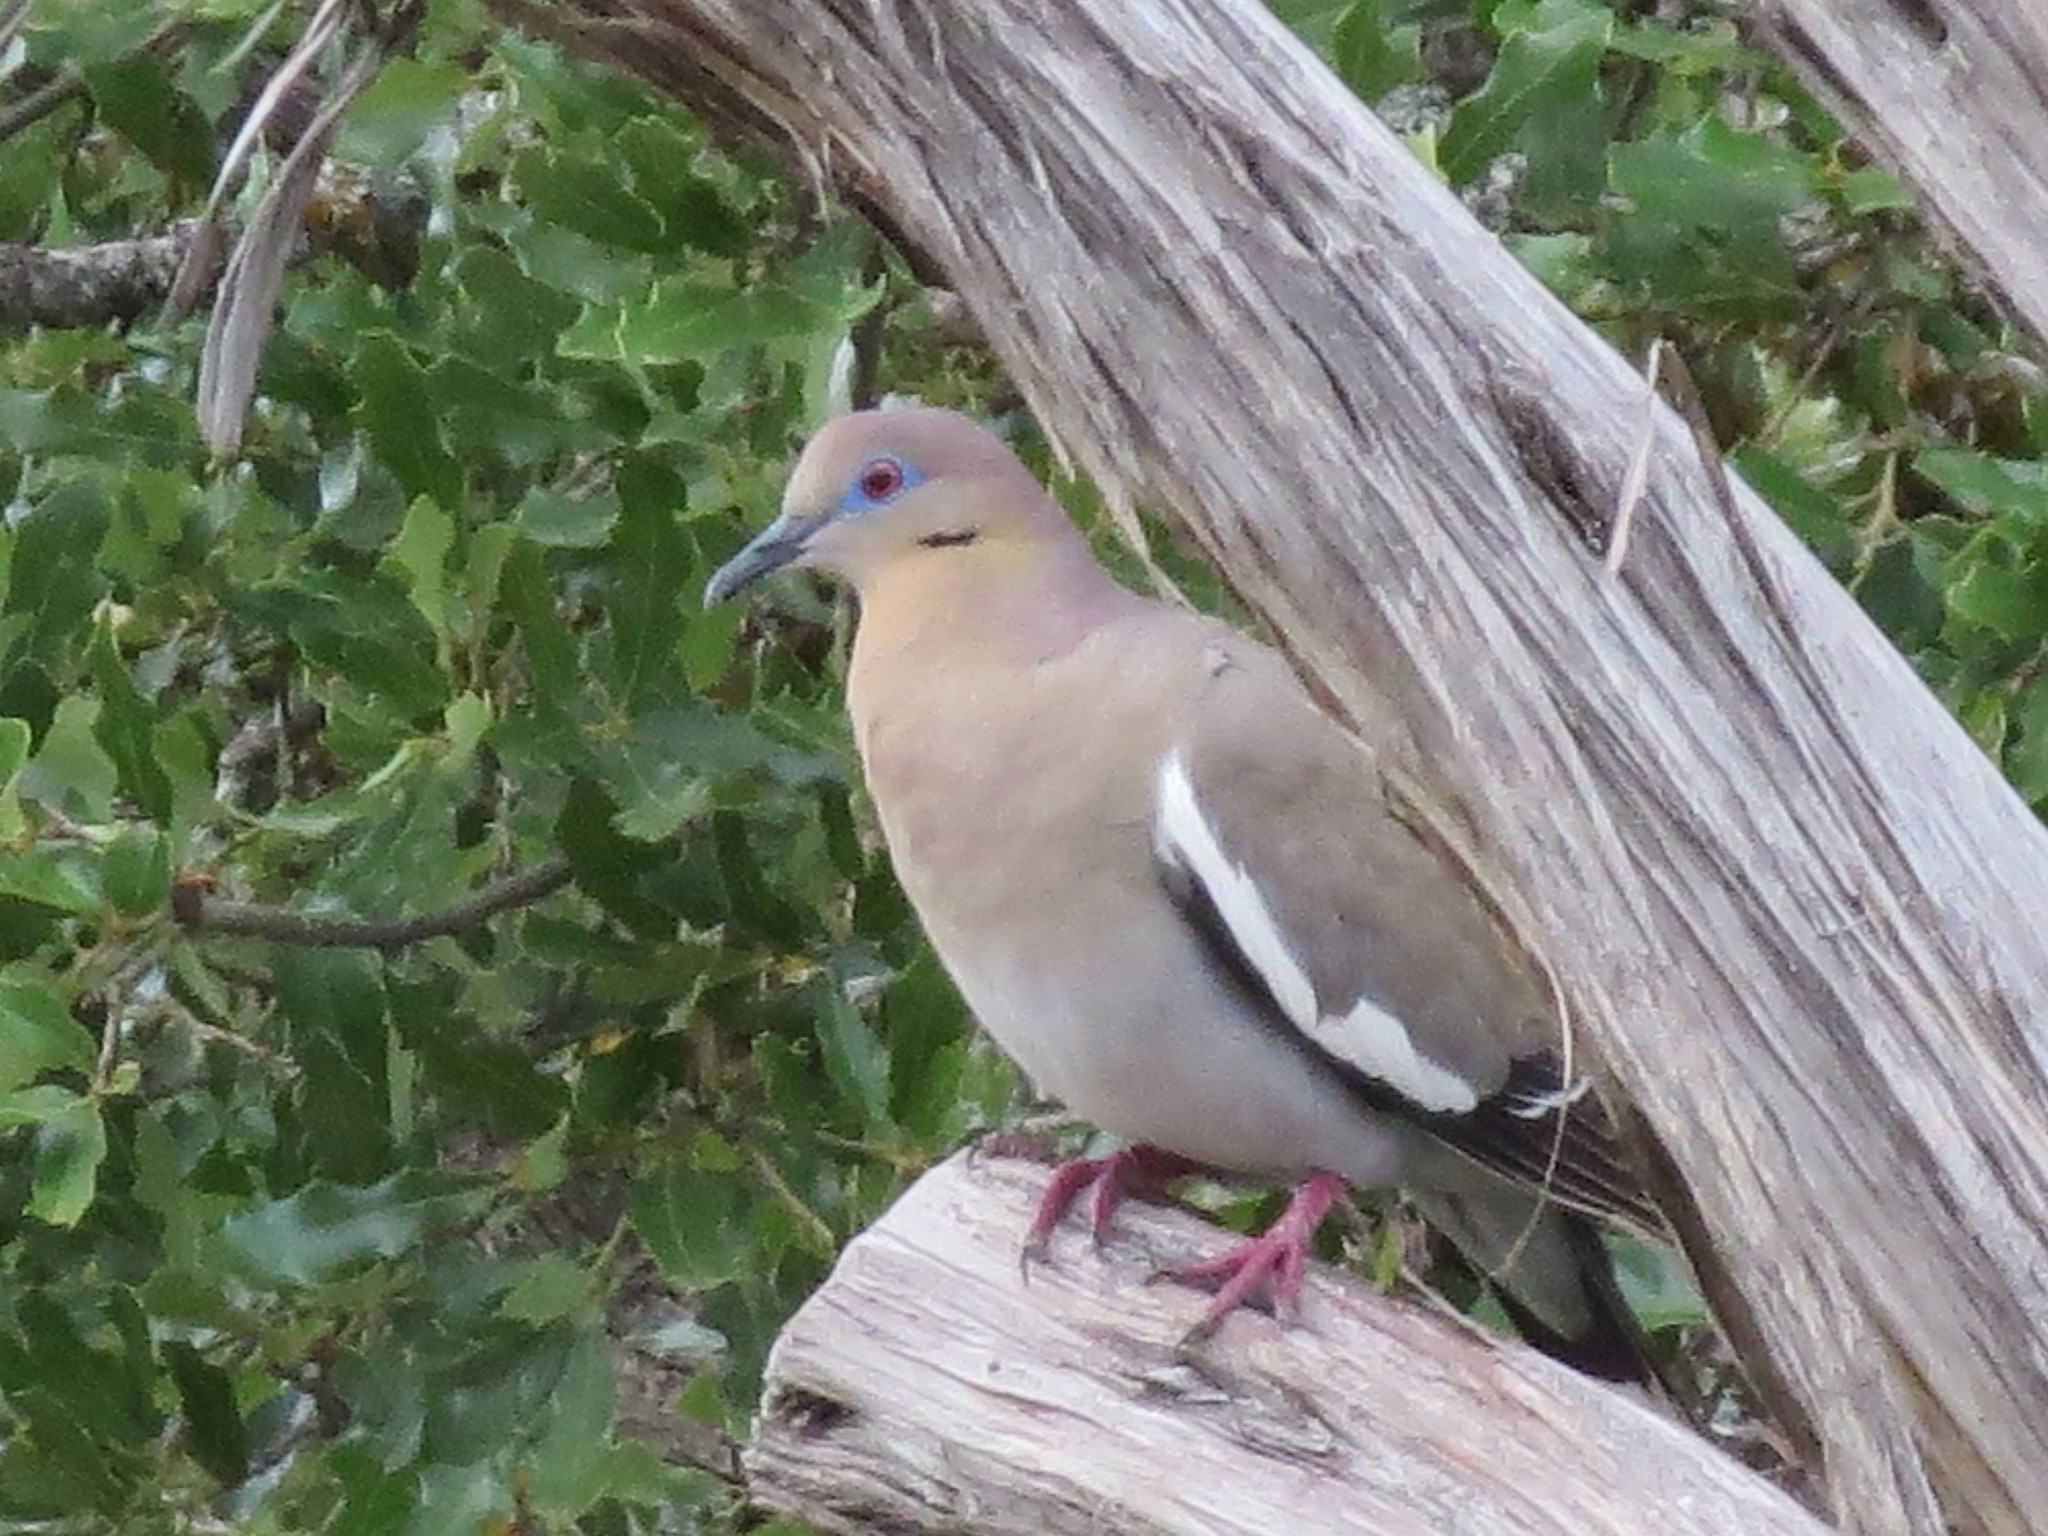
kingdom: Animalia
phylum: Chordata
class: Aves
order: Columbiformes
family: Columbidae
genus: Zenaida
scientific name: Zenaida asiatica
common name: White-winged dove
